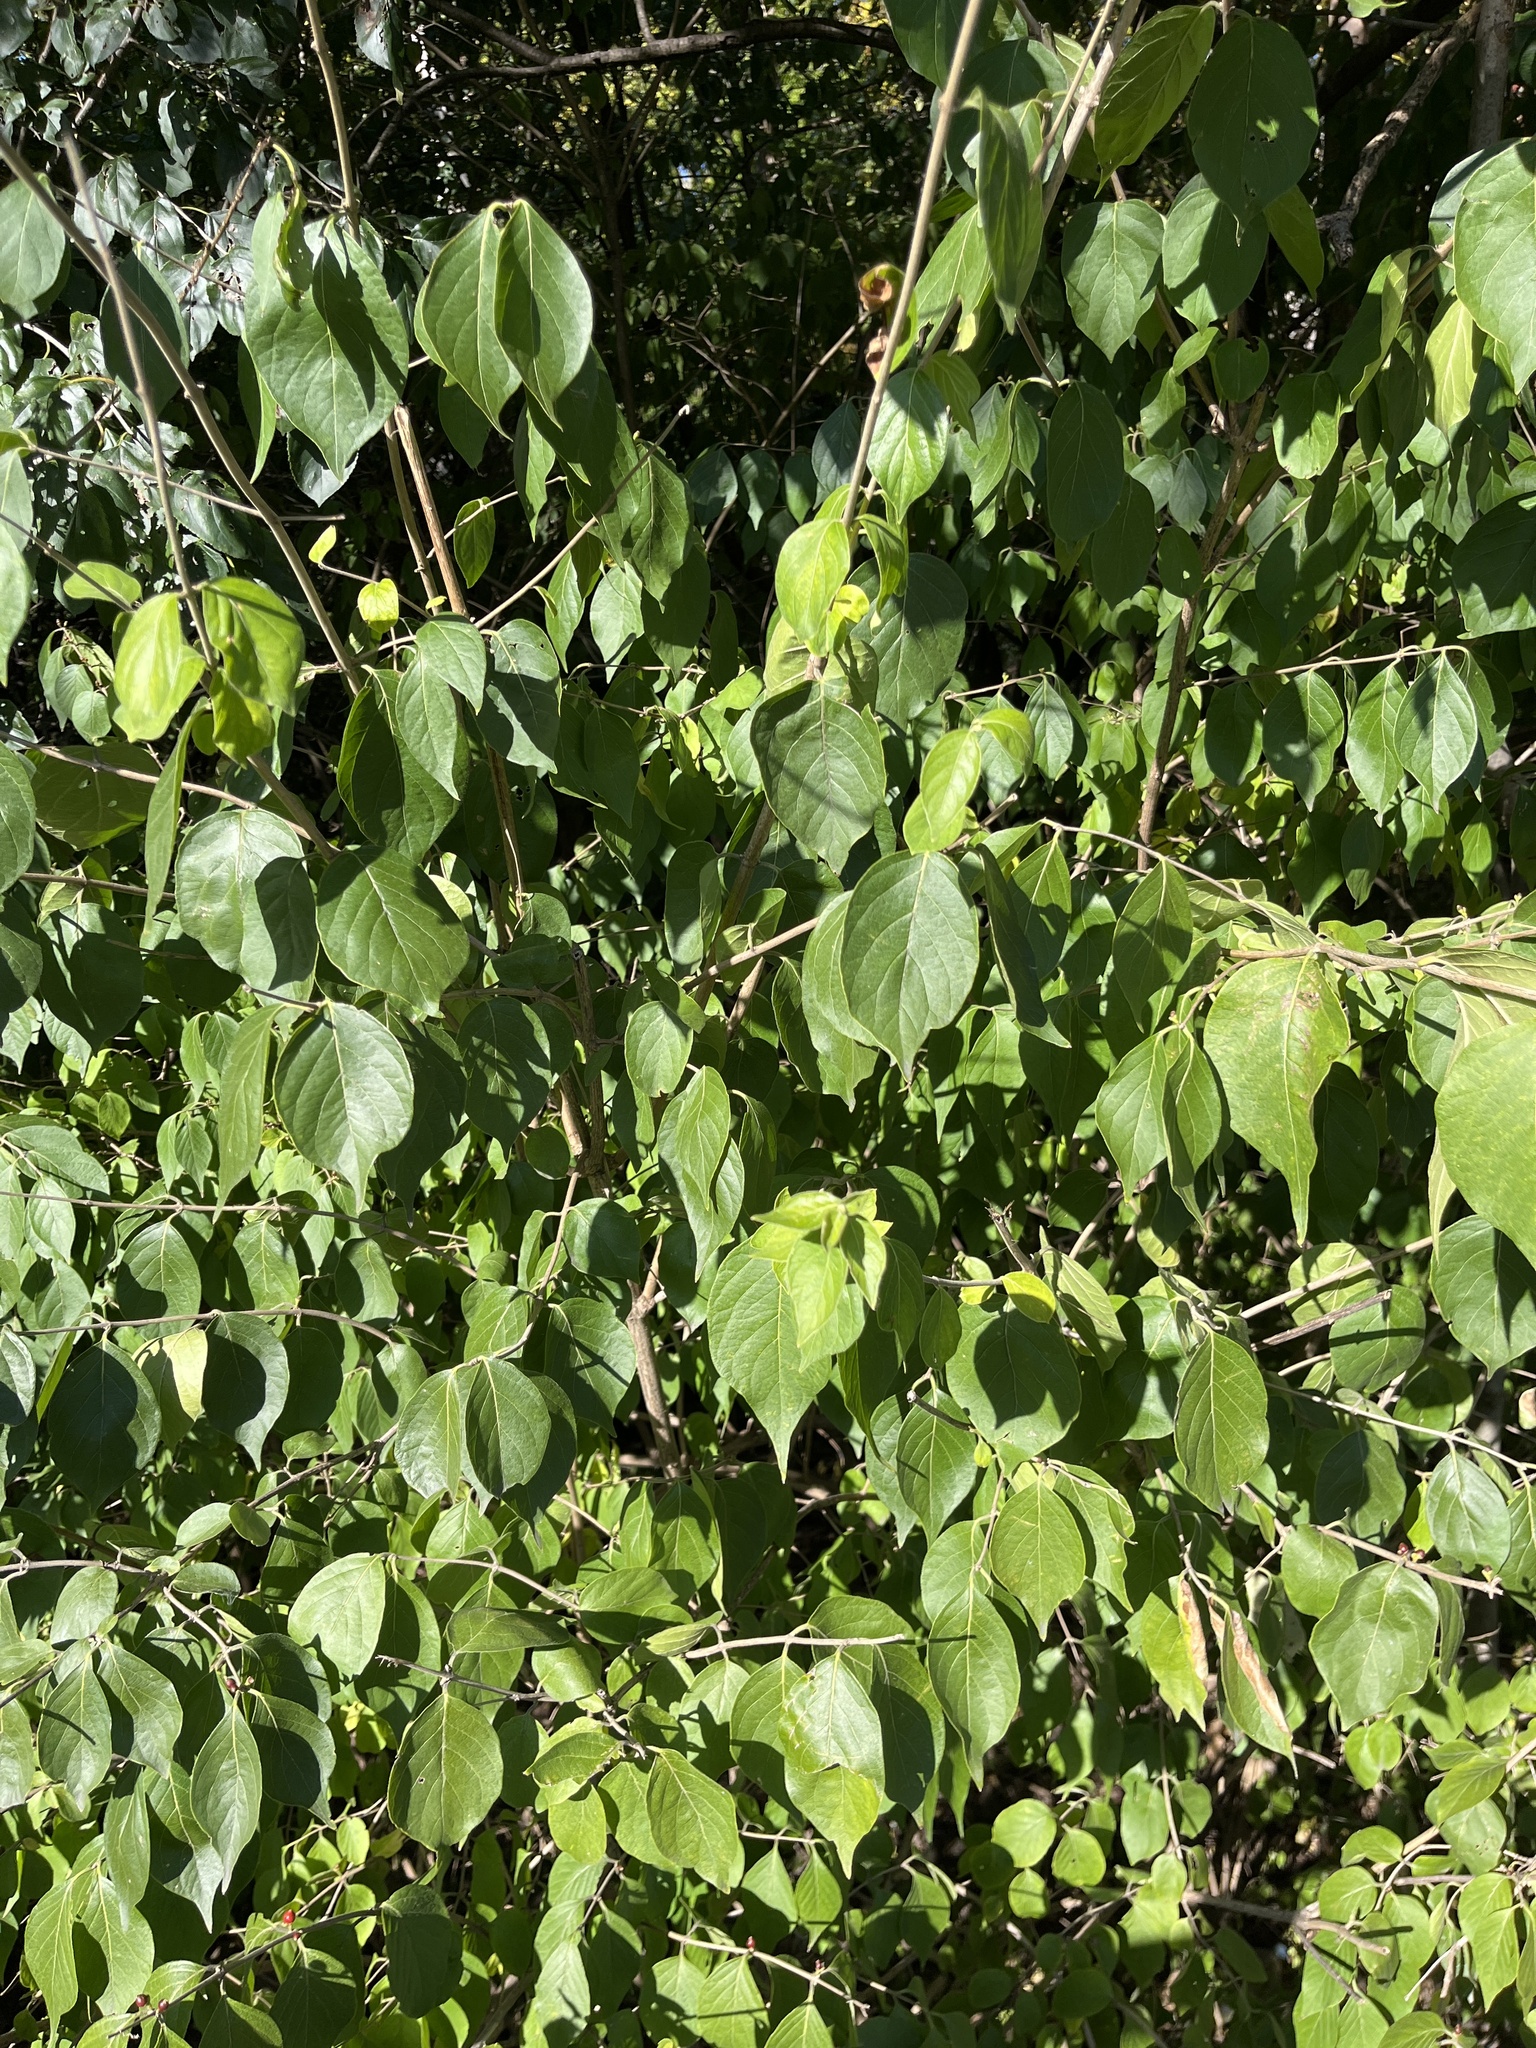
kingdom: Plantae
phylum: Tracheophyta
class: Magnoliopsida
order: Dipsacales
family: Caprifoliaceae
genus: Lonicera
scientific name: Lonicera maackii
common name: Amur honeysuckle
